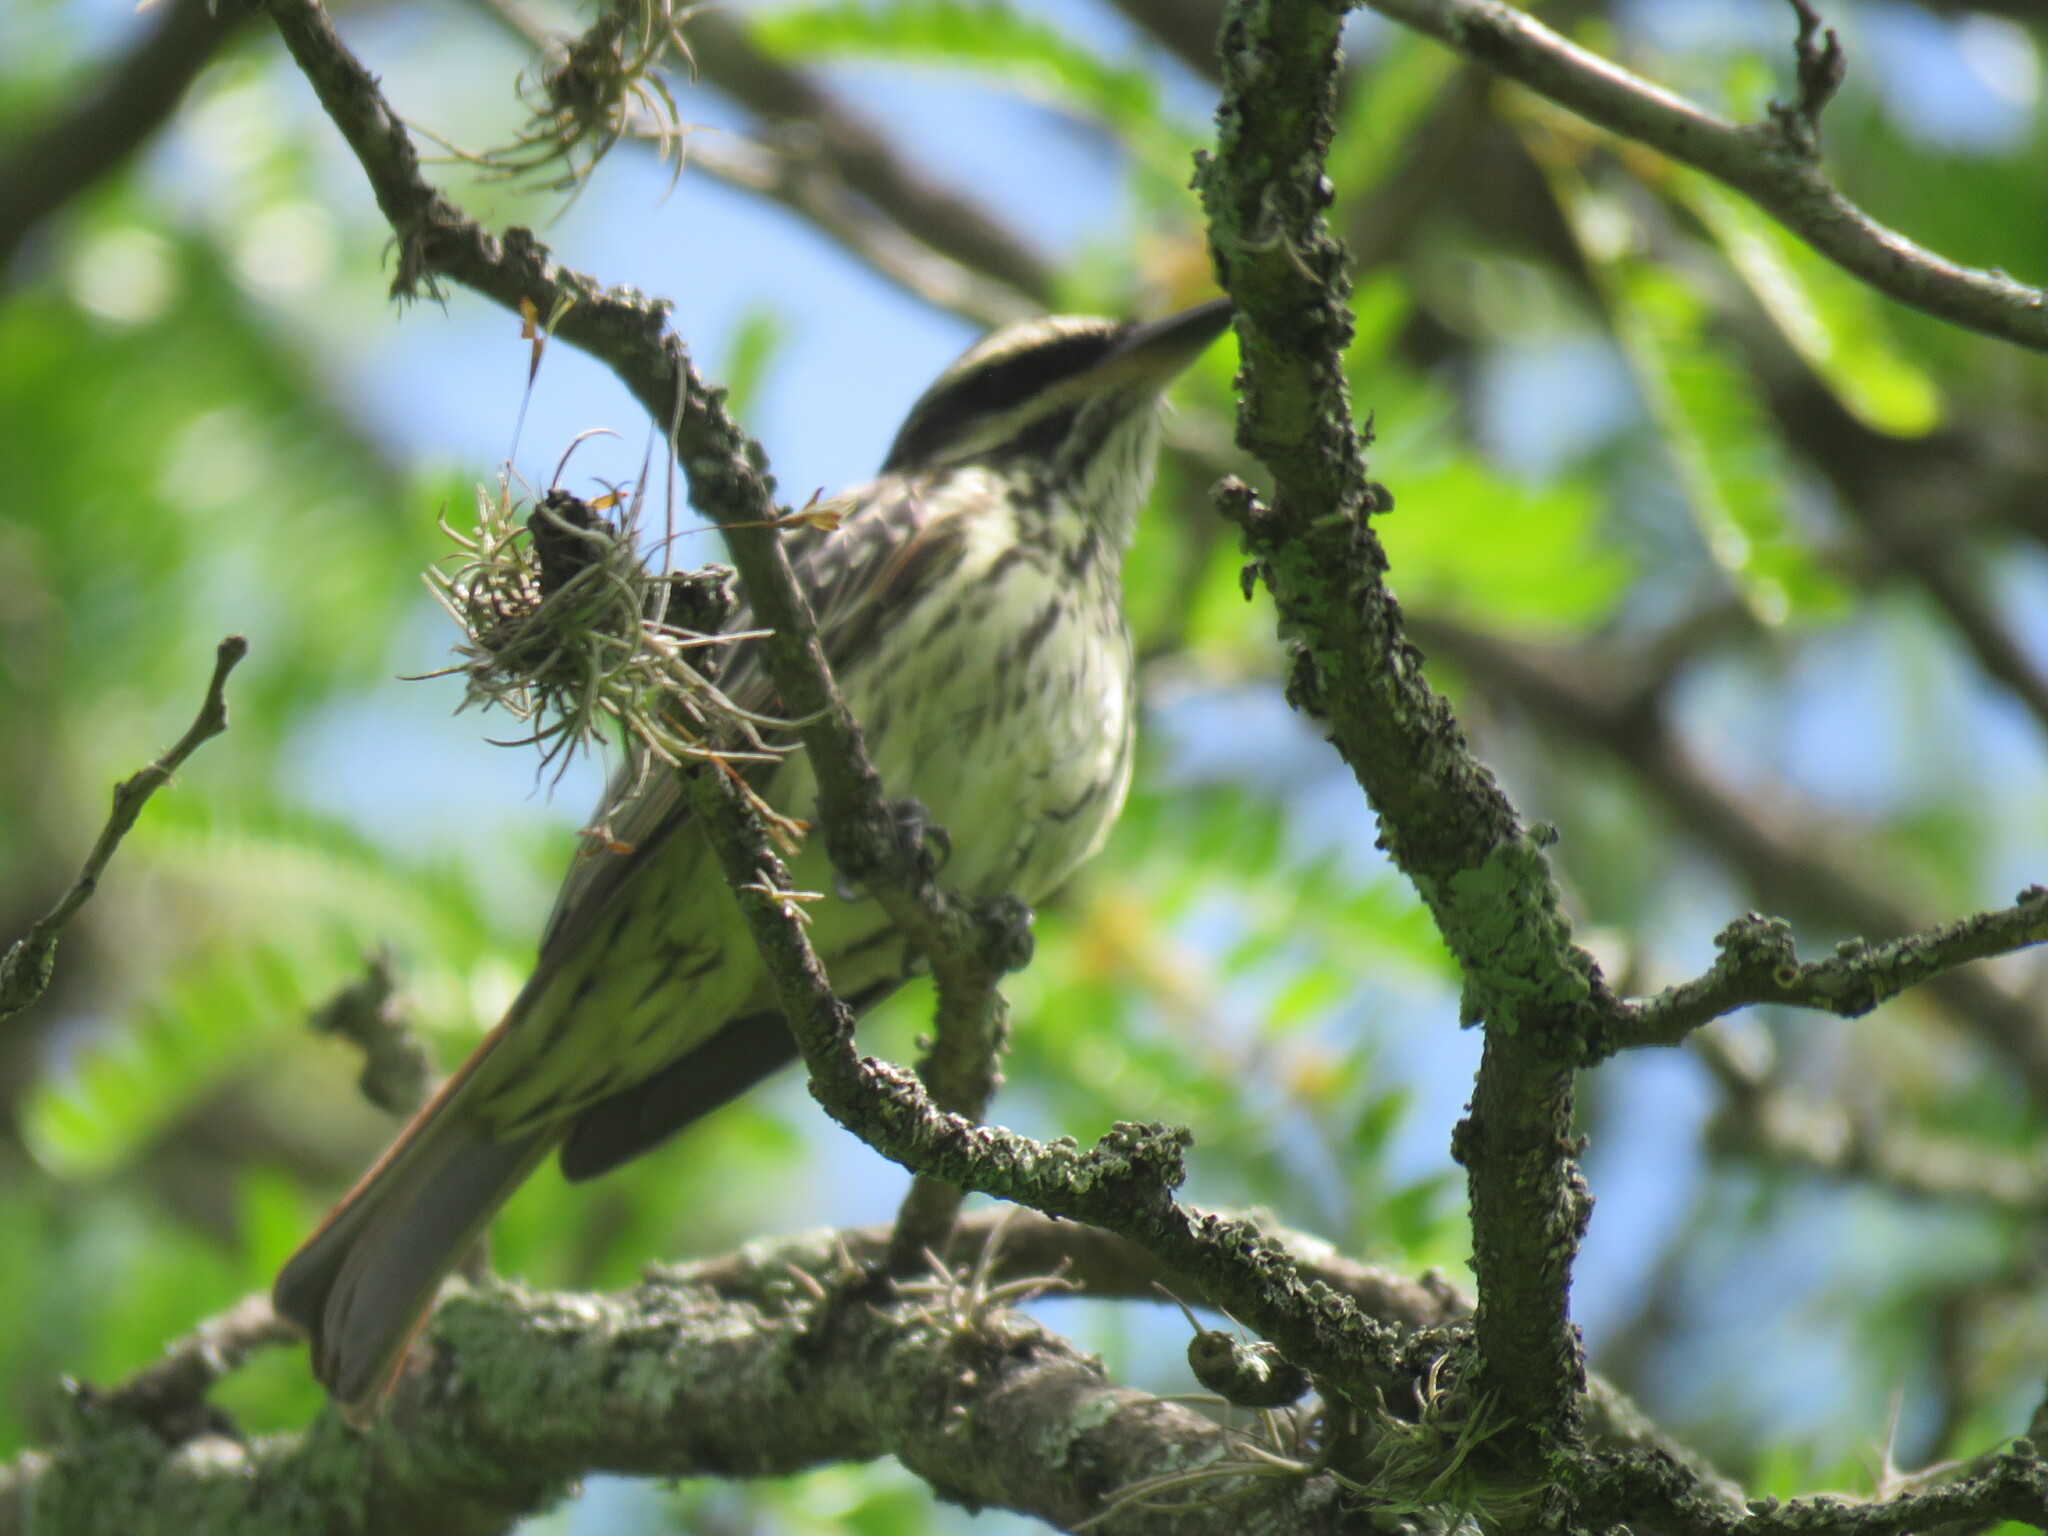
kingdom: Animalia
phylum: Chordata
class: Aves
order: Passeriformes
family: Tyrannidae
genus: Myiodynastes
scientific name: Myiodynastes maculatus
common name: Streaked flycatcher
